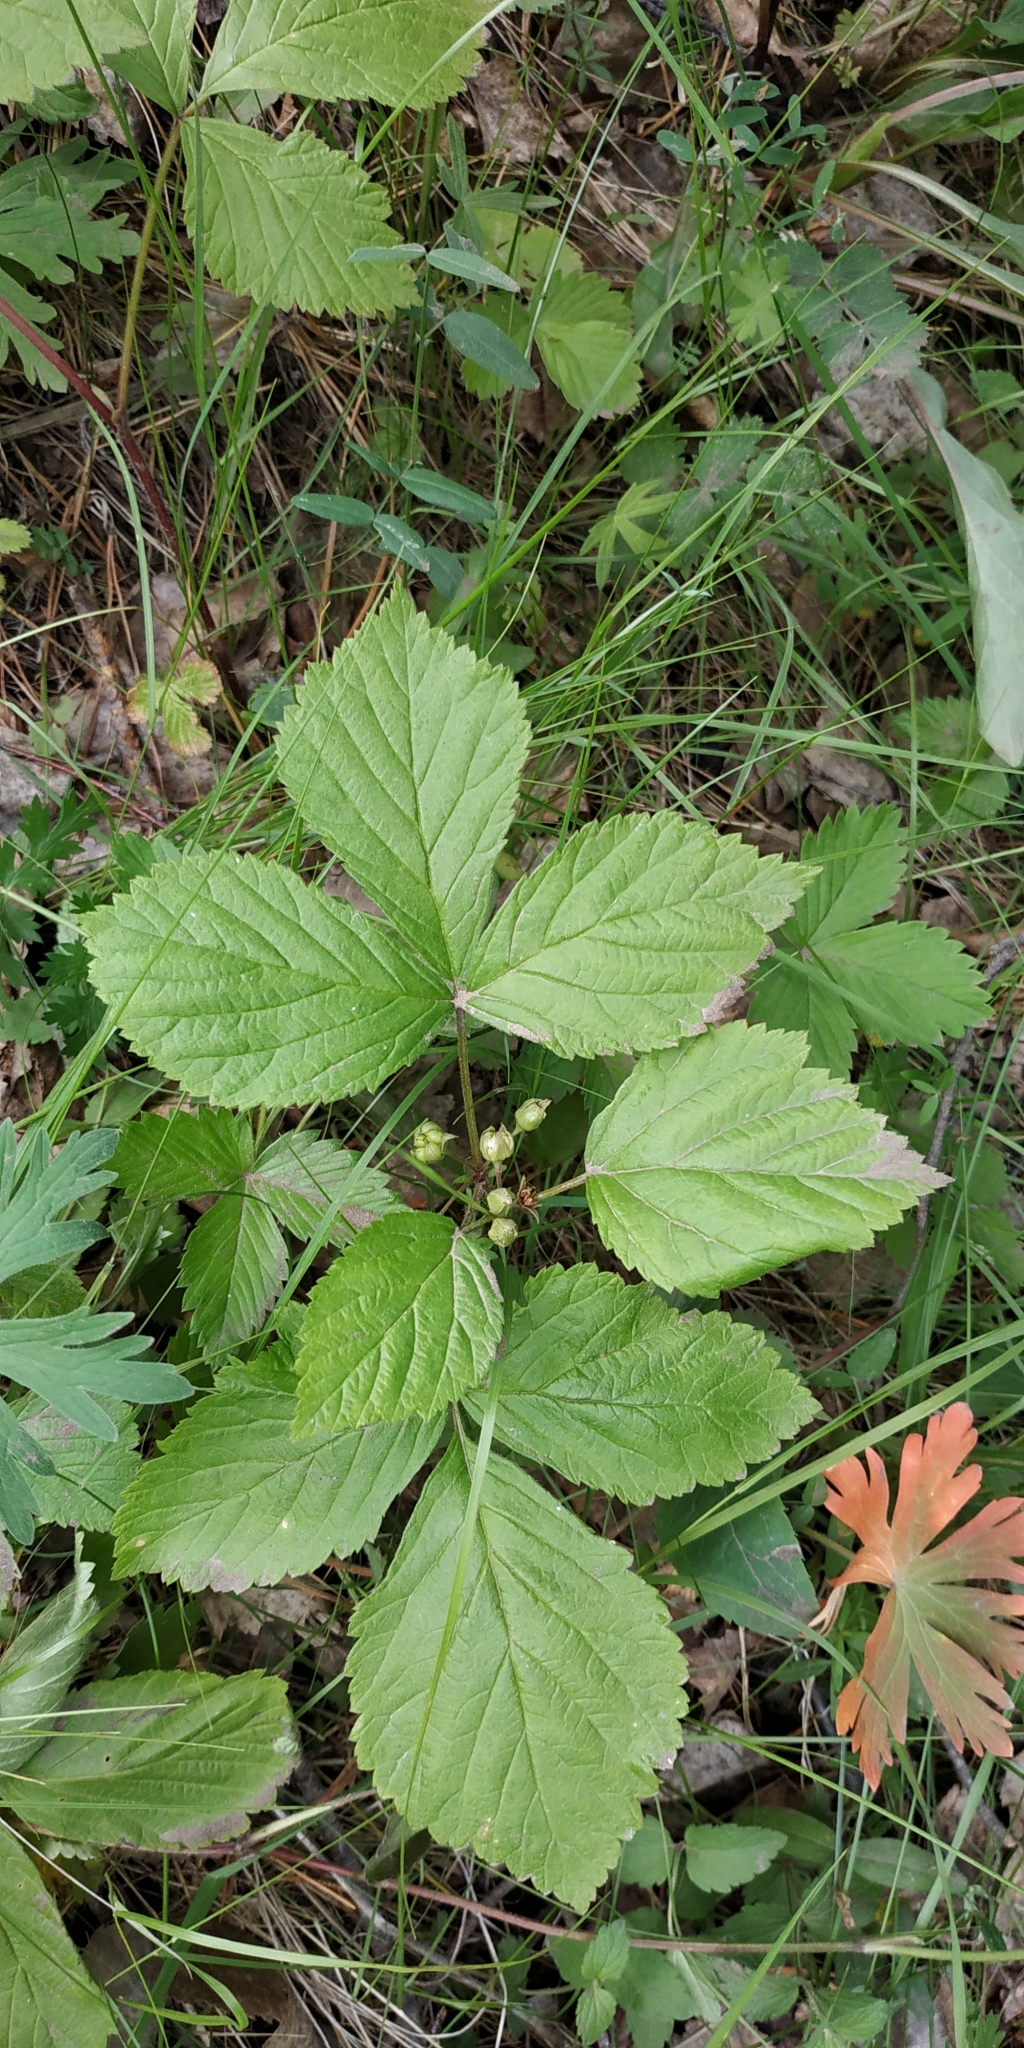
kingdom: Plantae
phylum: Tracheophyta
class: Magnoliopsida
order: Rosales
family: Rosaceae
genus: Rubus
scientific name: Rubus saxatilis
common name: Stone bramble
